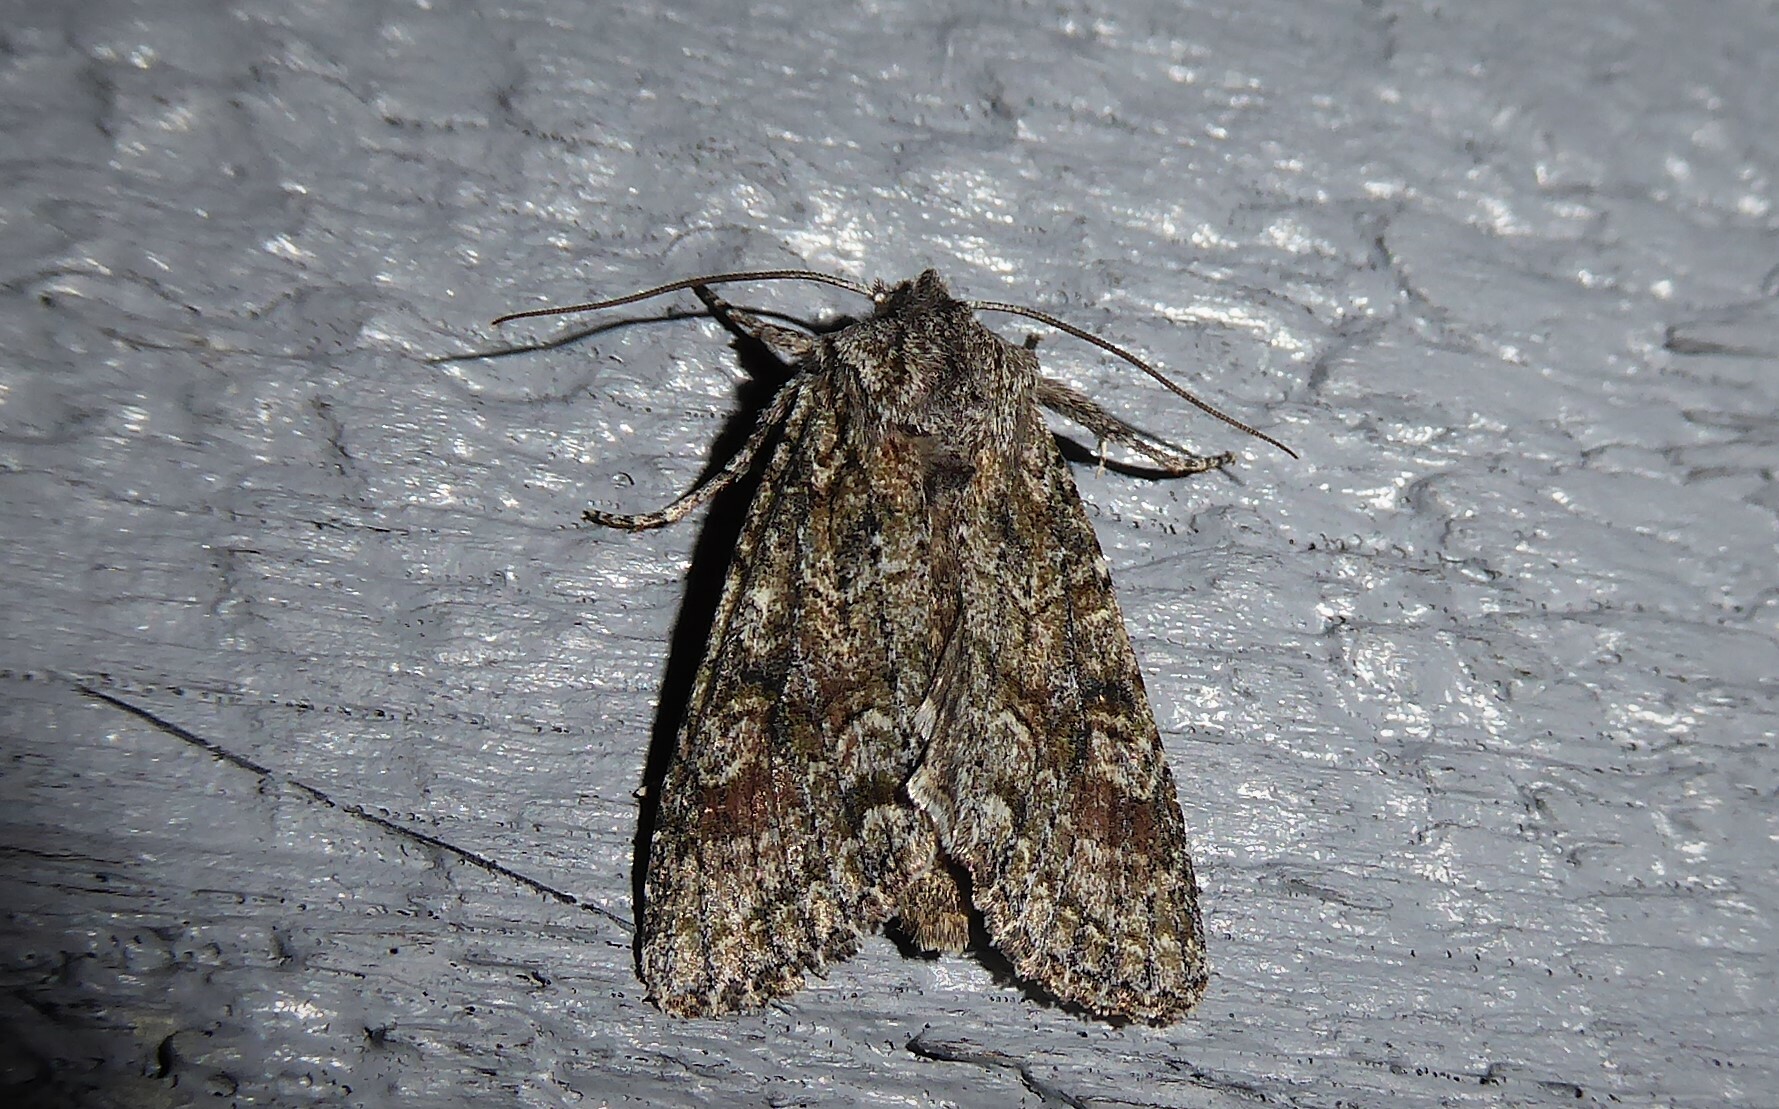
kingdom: Animalia
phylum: Arthropoda
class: Insecta
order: Lepidoptera
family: Noctuidae
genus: Ichneutica
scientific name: Ichneutica mutans
